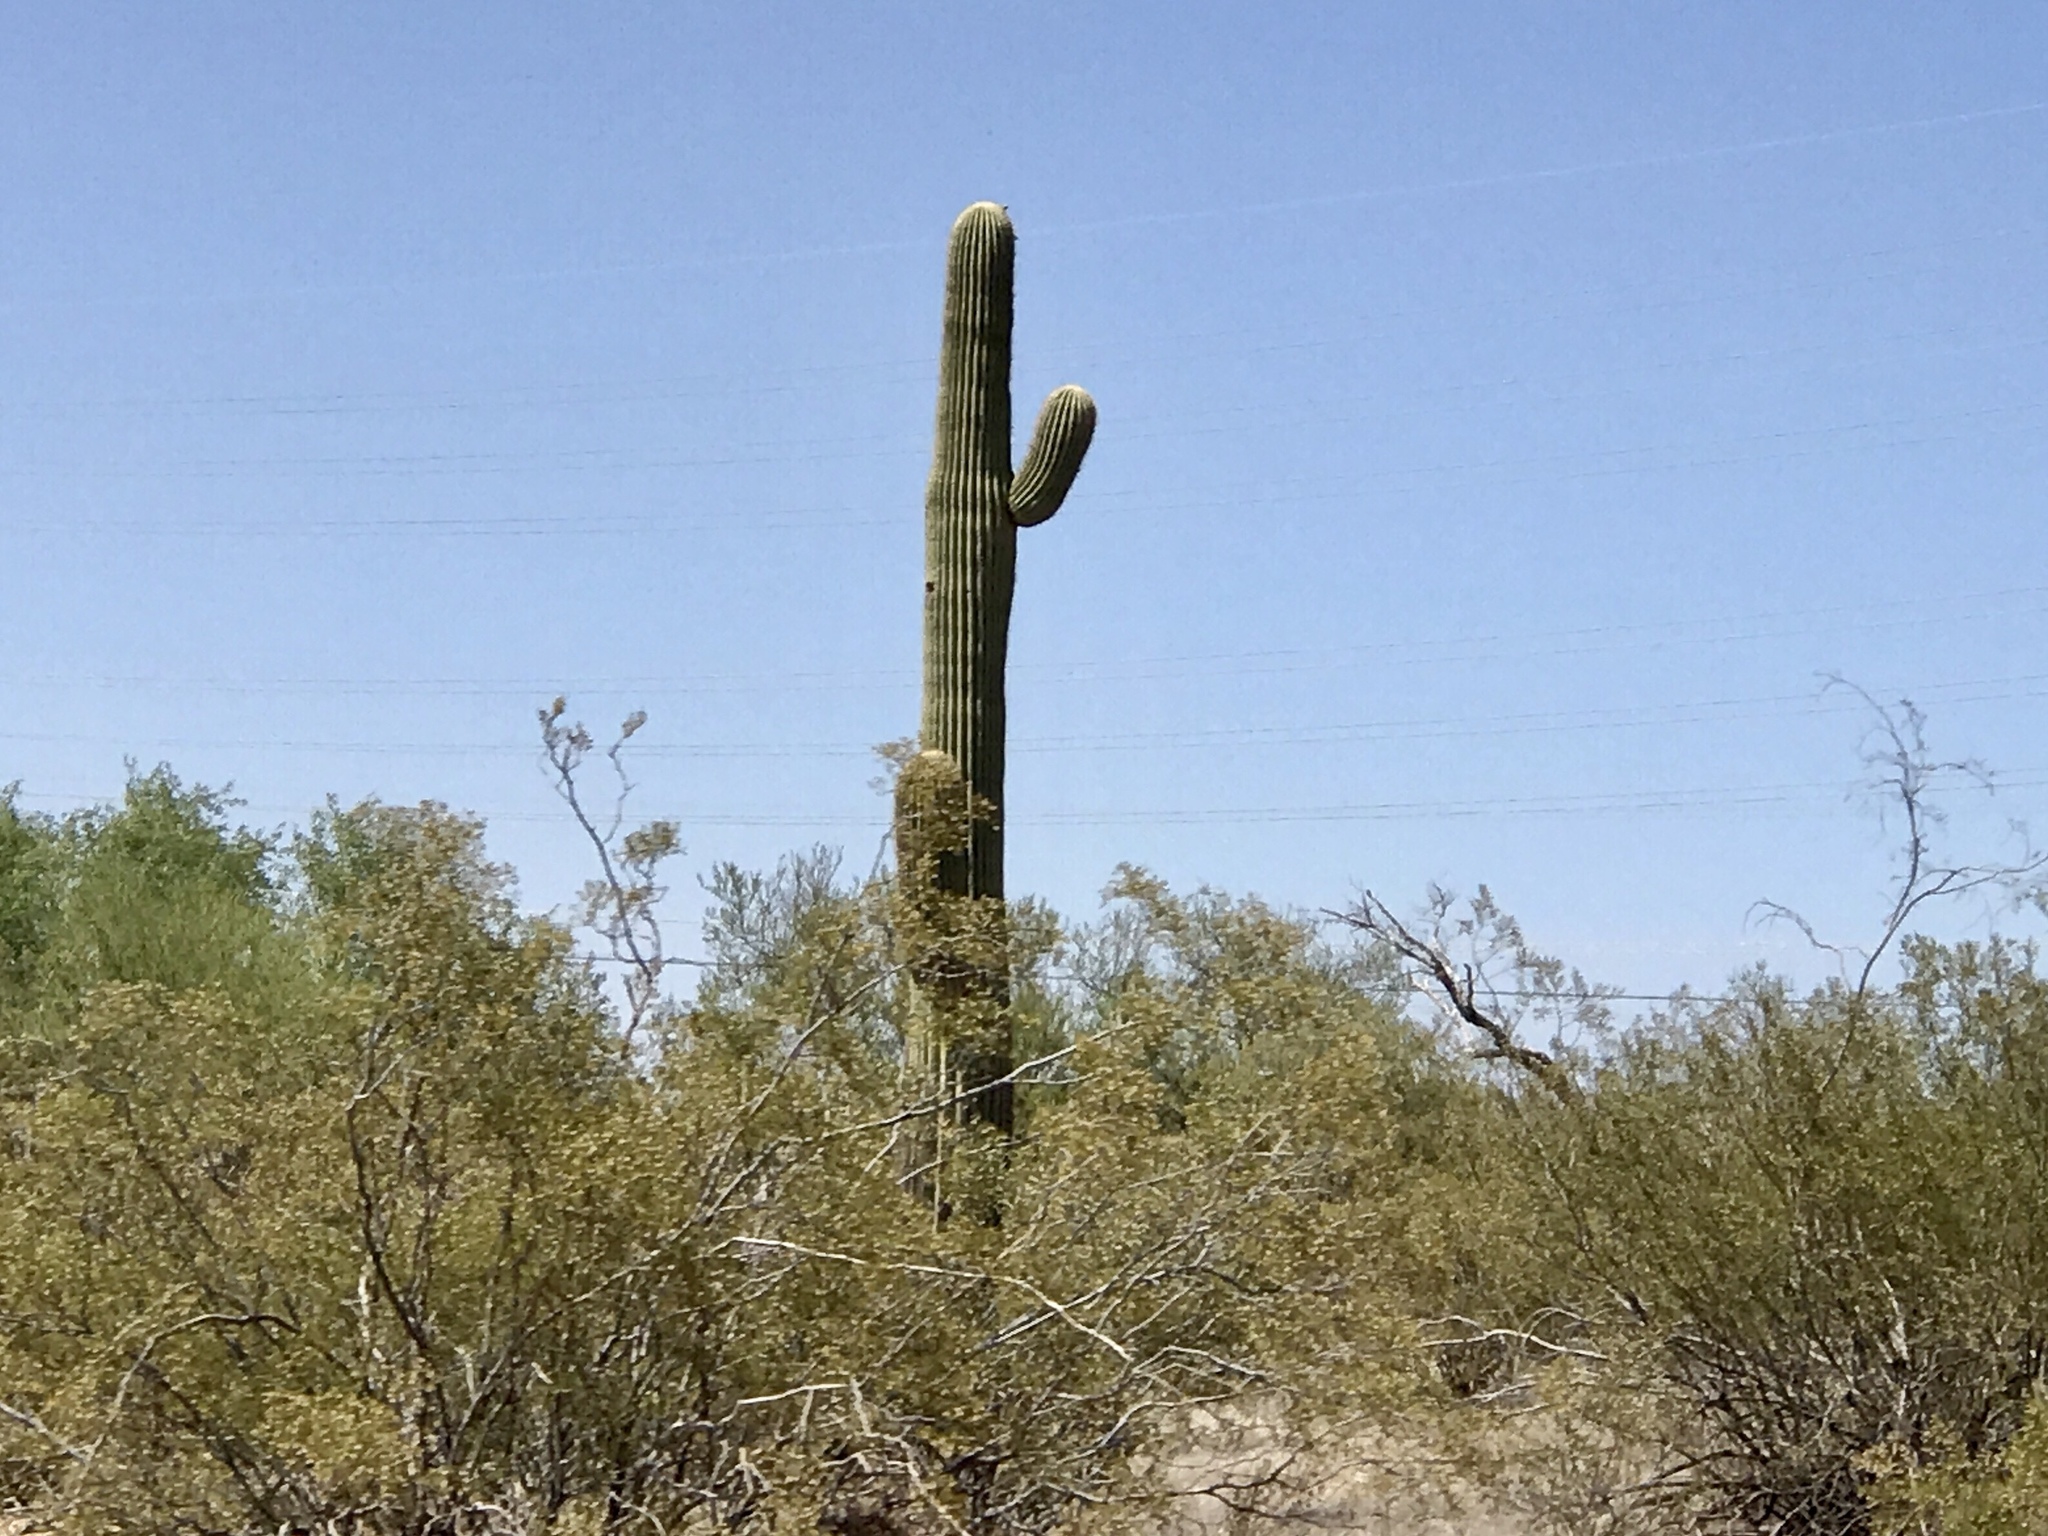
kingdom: Plantae
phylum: Tracheophyta
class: Magnoliopsida
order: Caryophyllales
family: Cactaceae
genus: Carnegiea
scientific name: Carnegiea gigantea
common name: Saguaro
